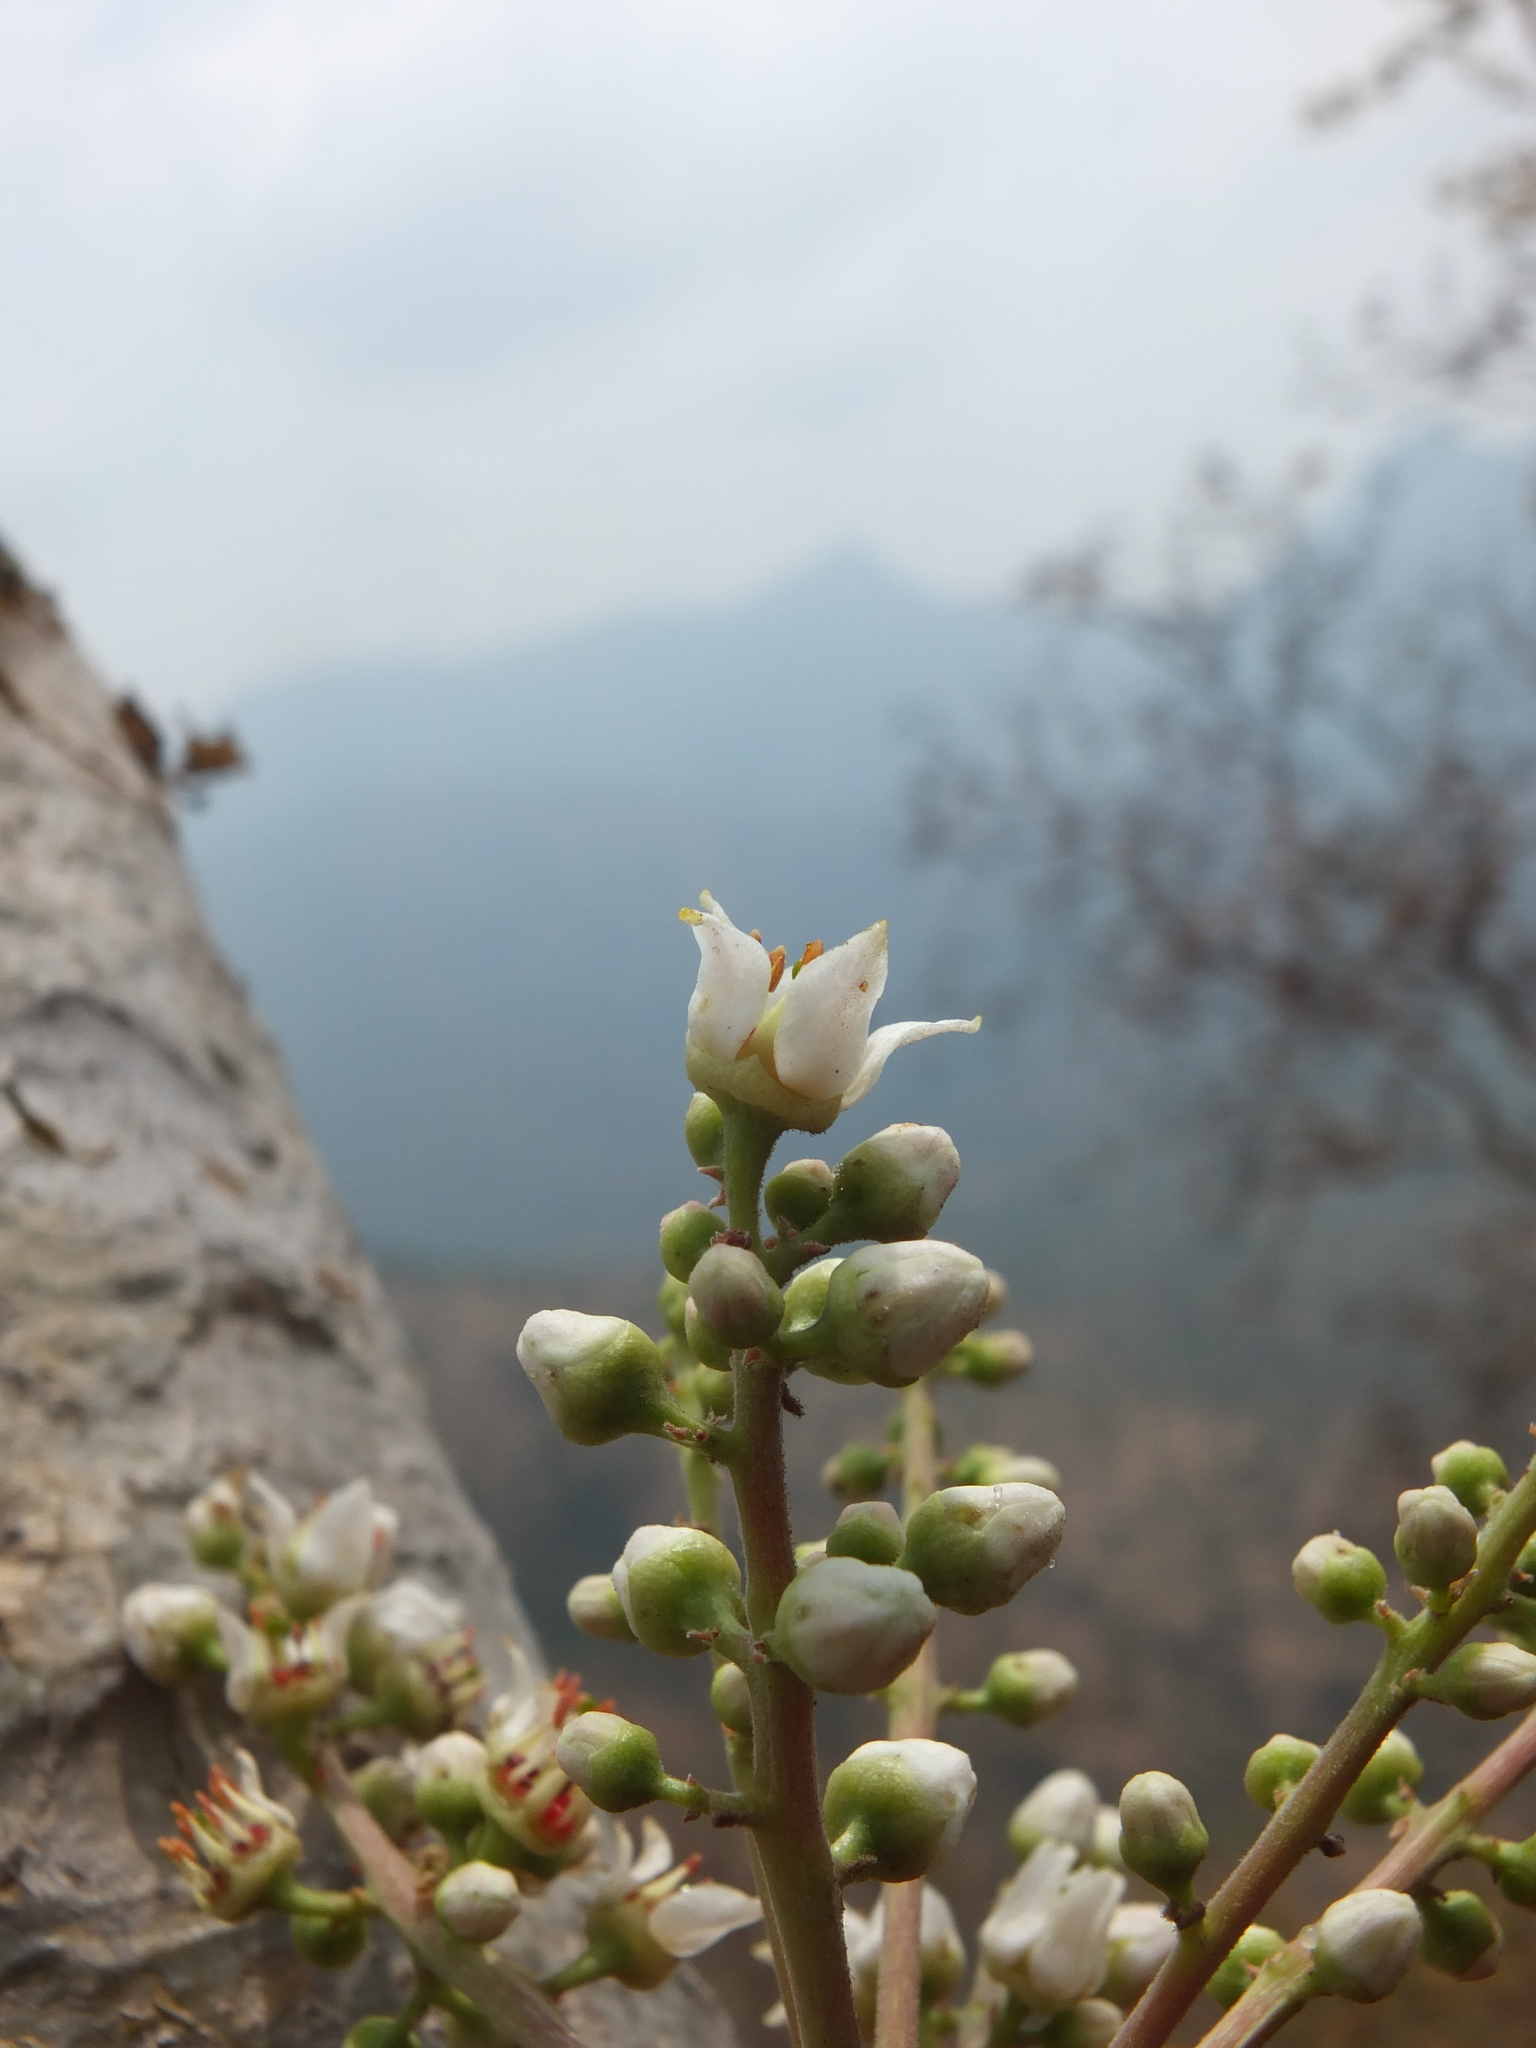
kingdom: Plantae
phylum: Tracheophyta
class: Magnoliopsida
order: Sapindales
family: Burseraceae
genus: Boswellia
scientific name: Boswellia serrata
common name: Boswellia
